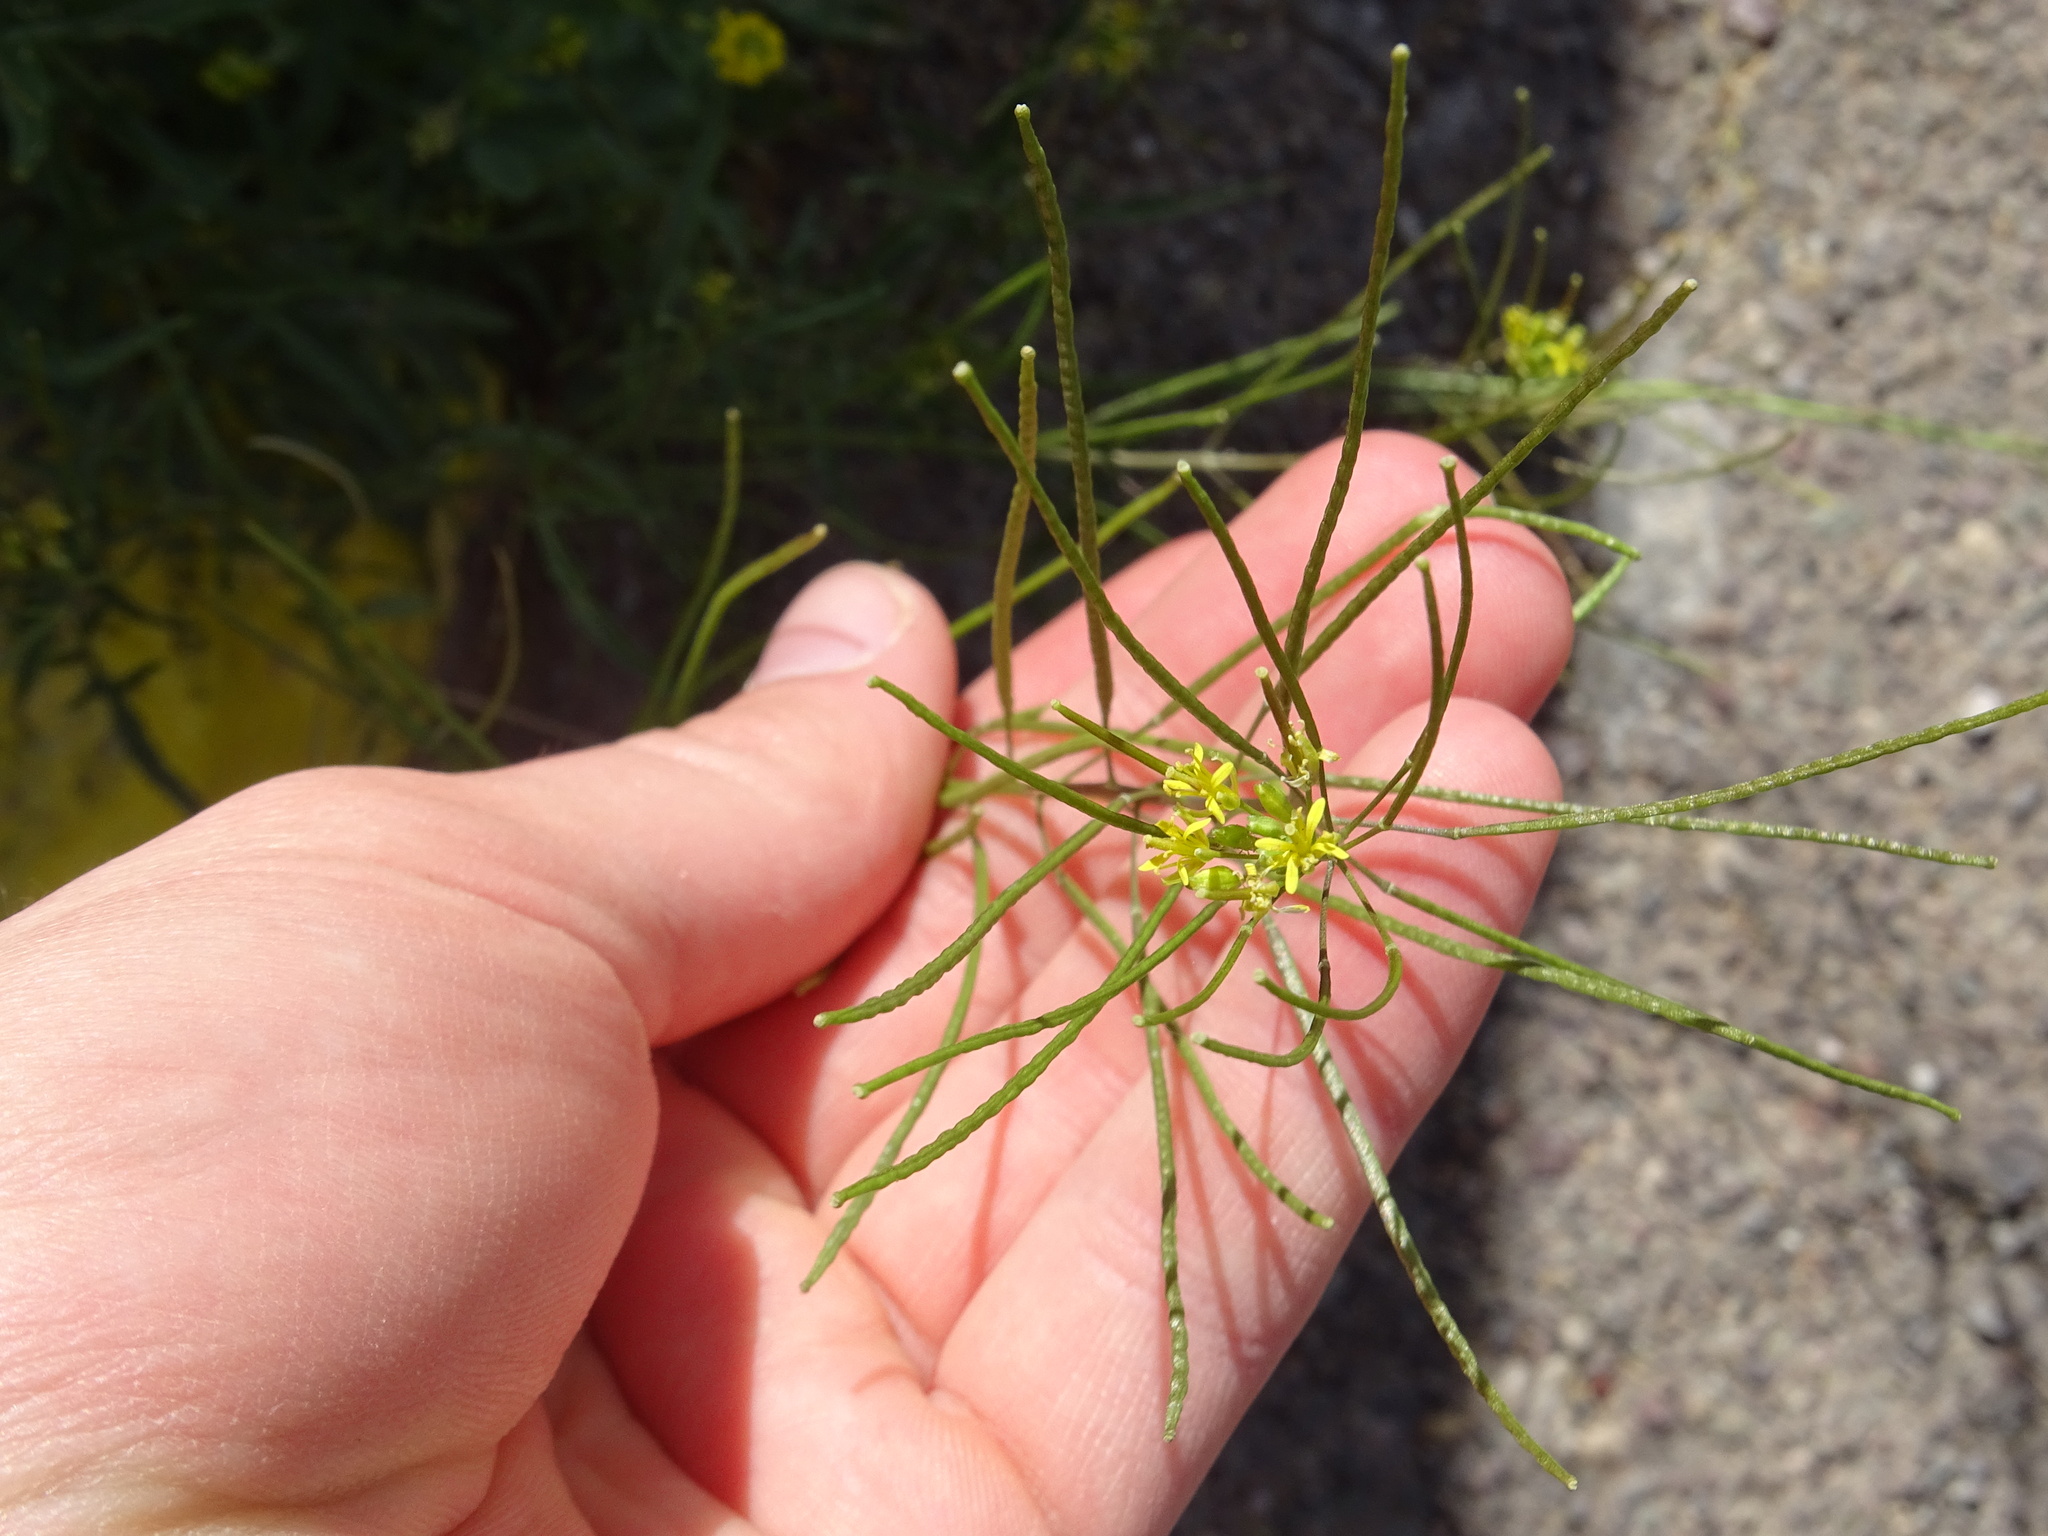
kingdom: Plantae
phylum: Tracheophyta
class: Magnoliopsida
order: Brassicales
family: Brassicaceae
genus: Sisymbrium
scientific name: Sisymbrium irio
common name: London rocket
